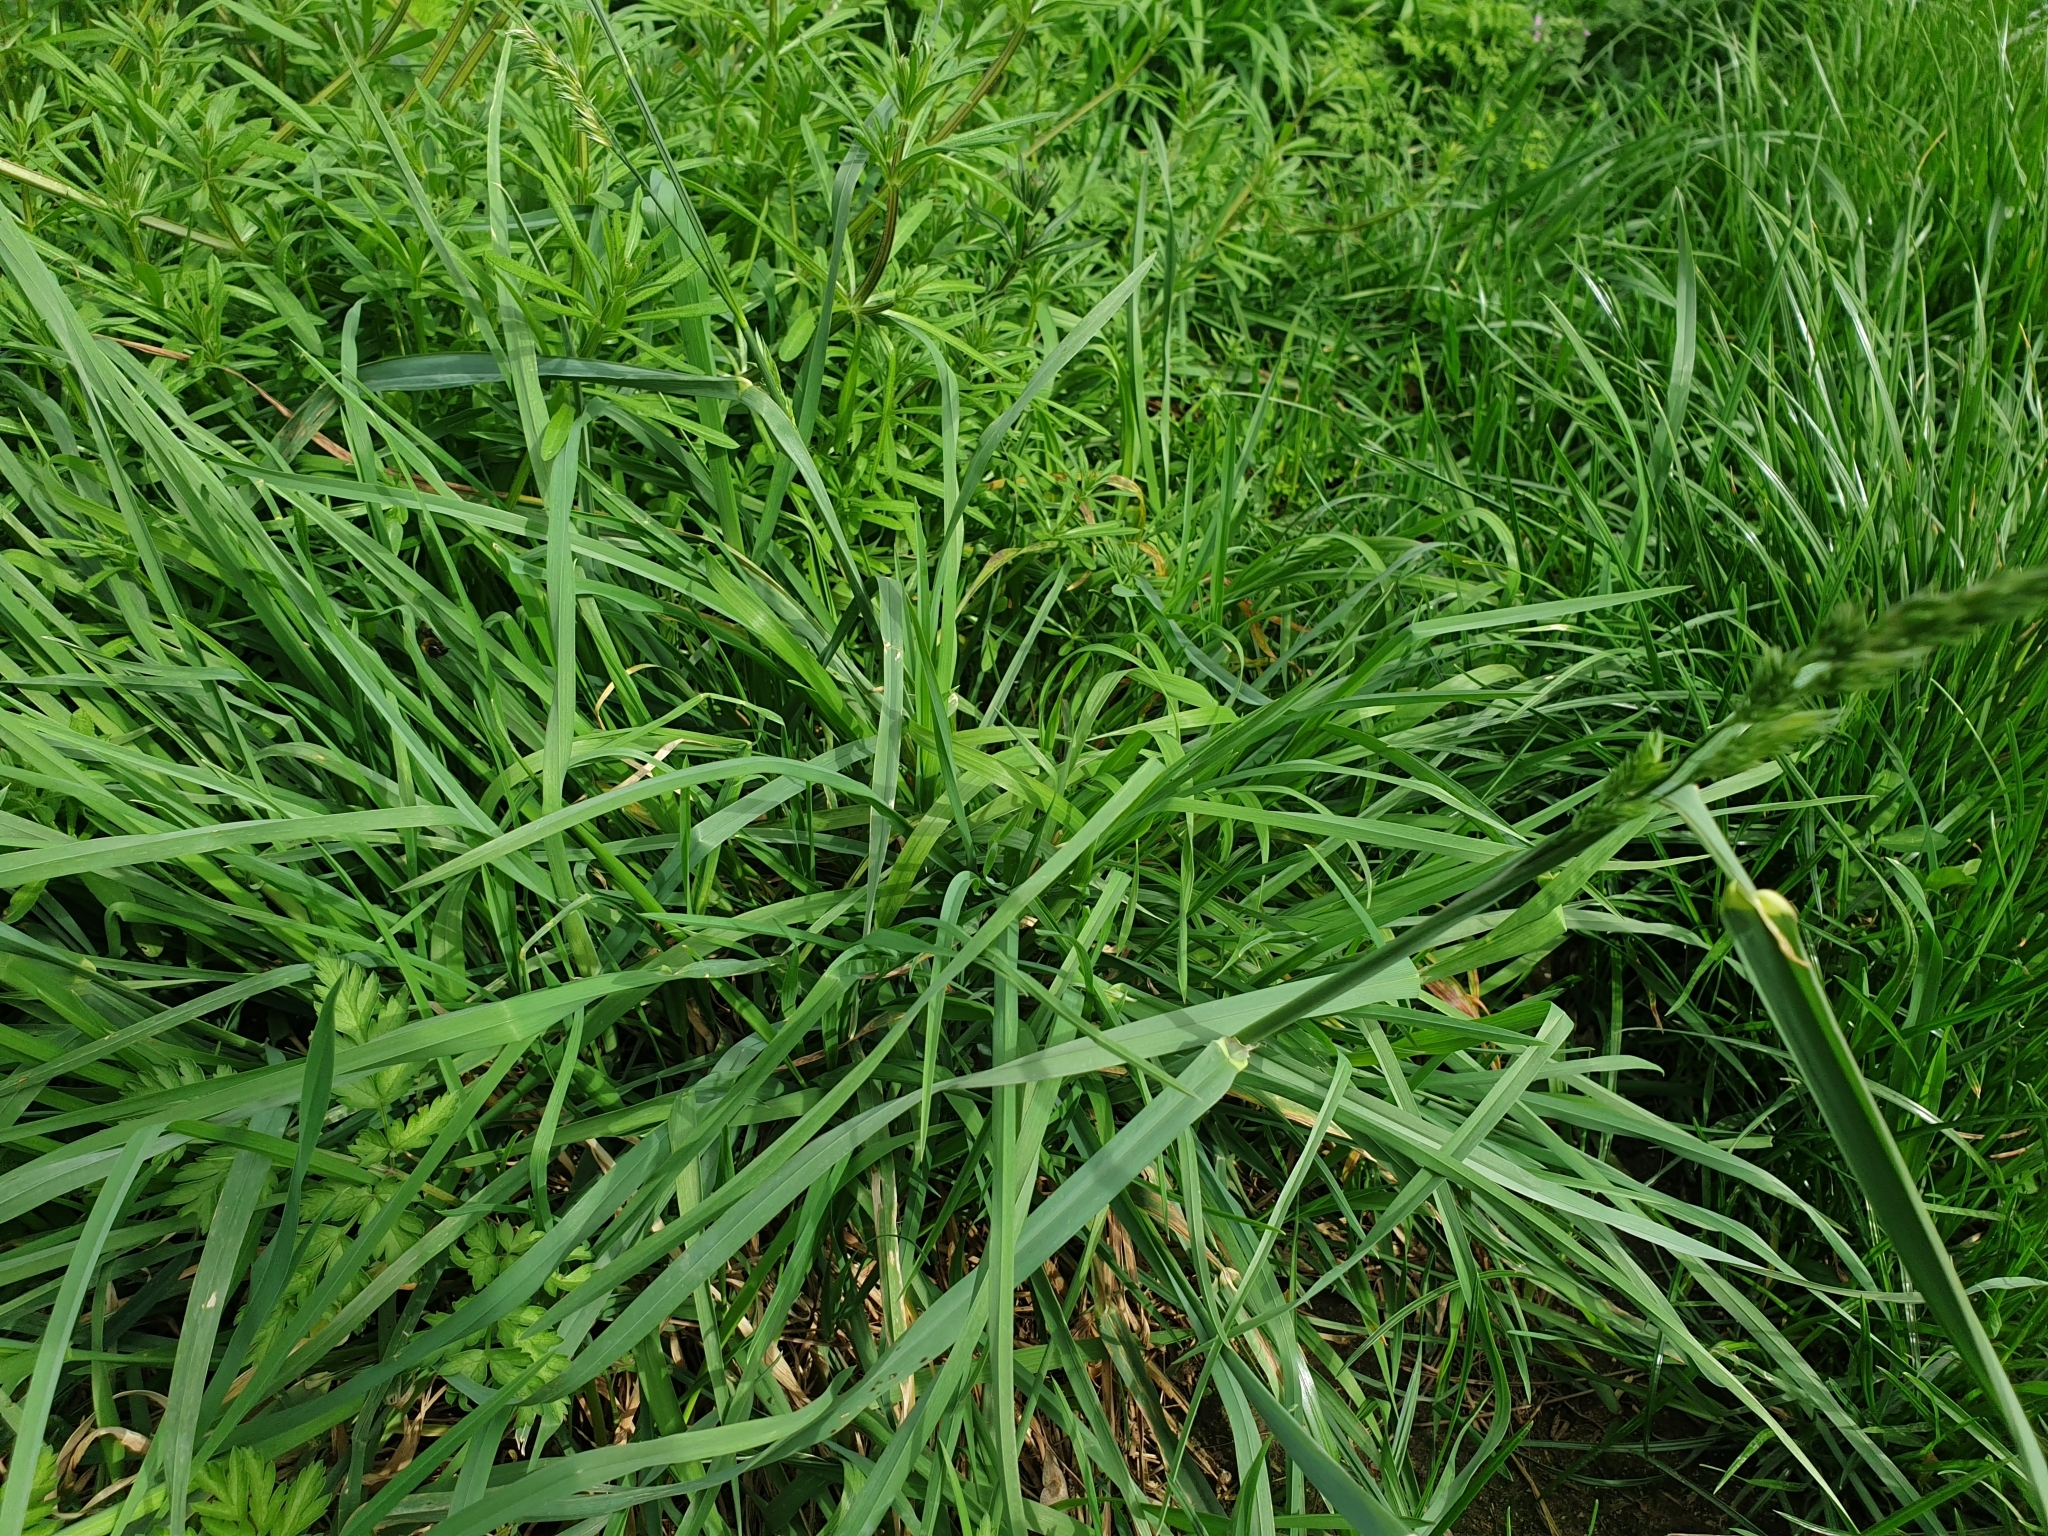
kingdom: Plantae
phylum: Tracheophyta
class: Liliopsida
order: Poales
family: Poaceae
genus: Dactylis
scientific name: Dactylis glomerata
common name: Orchardgrass
